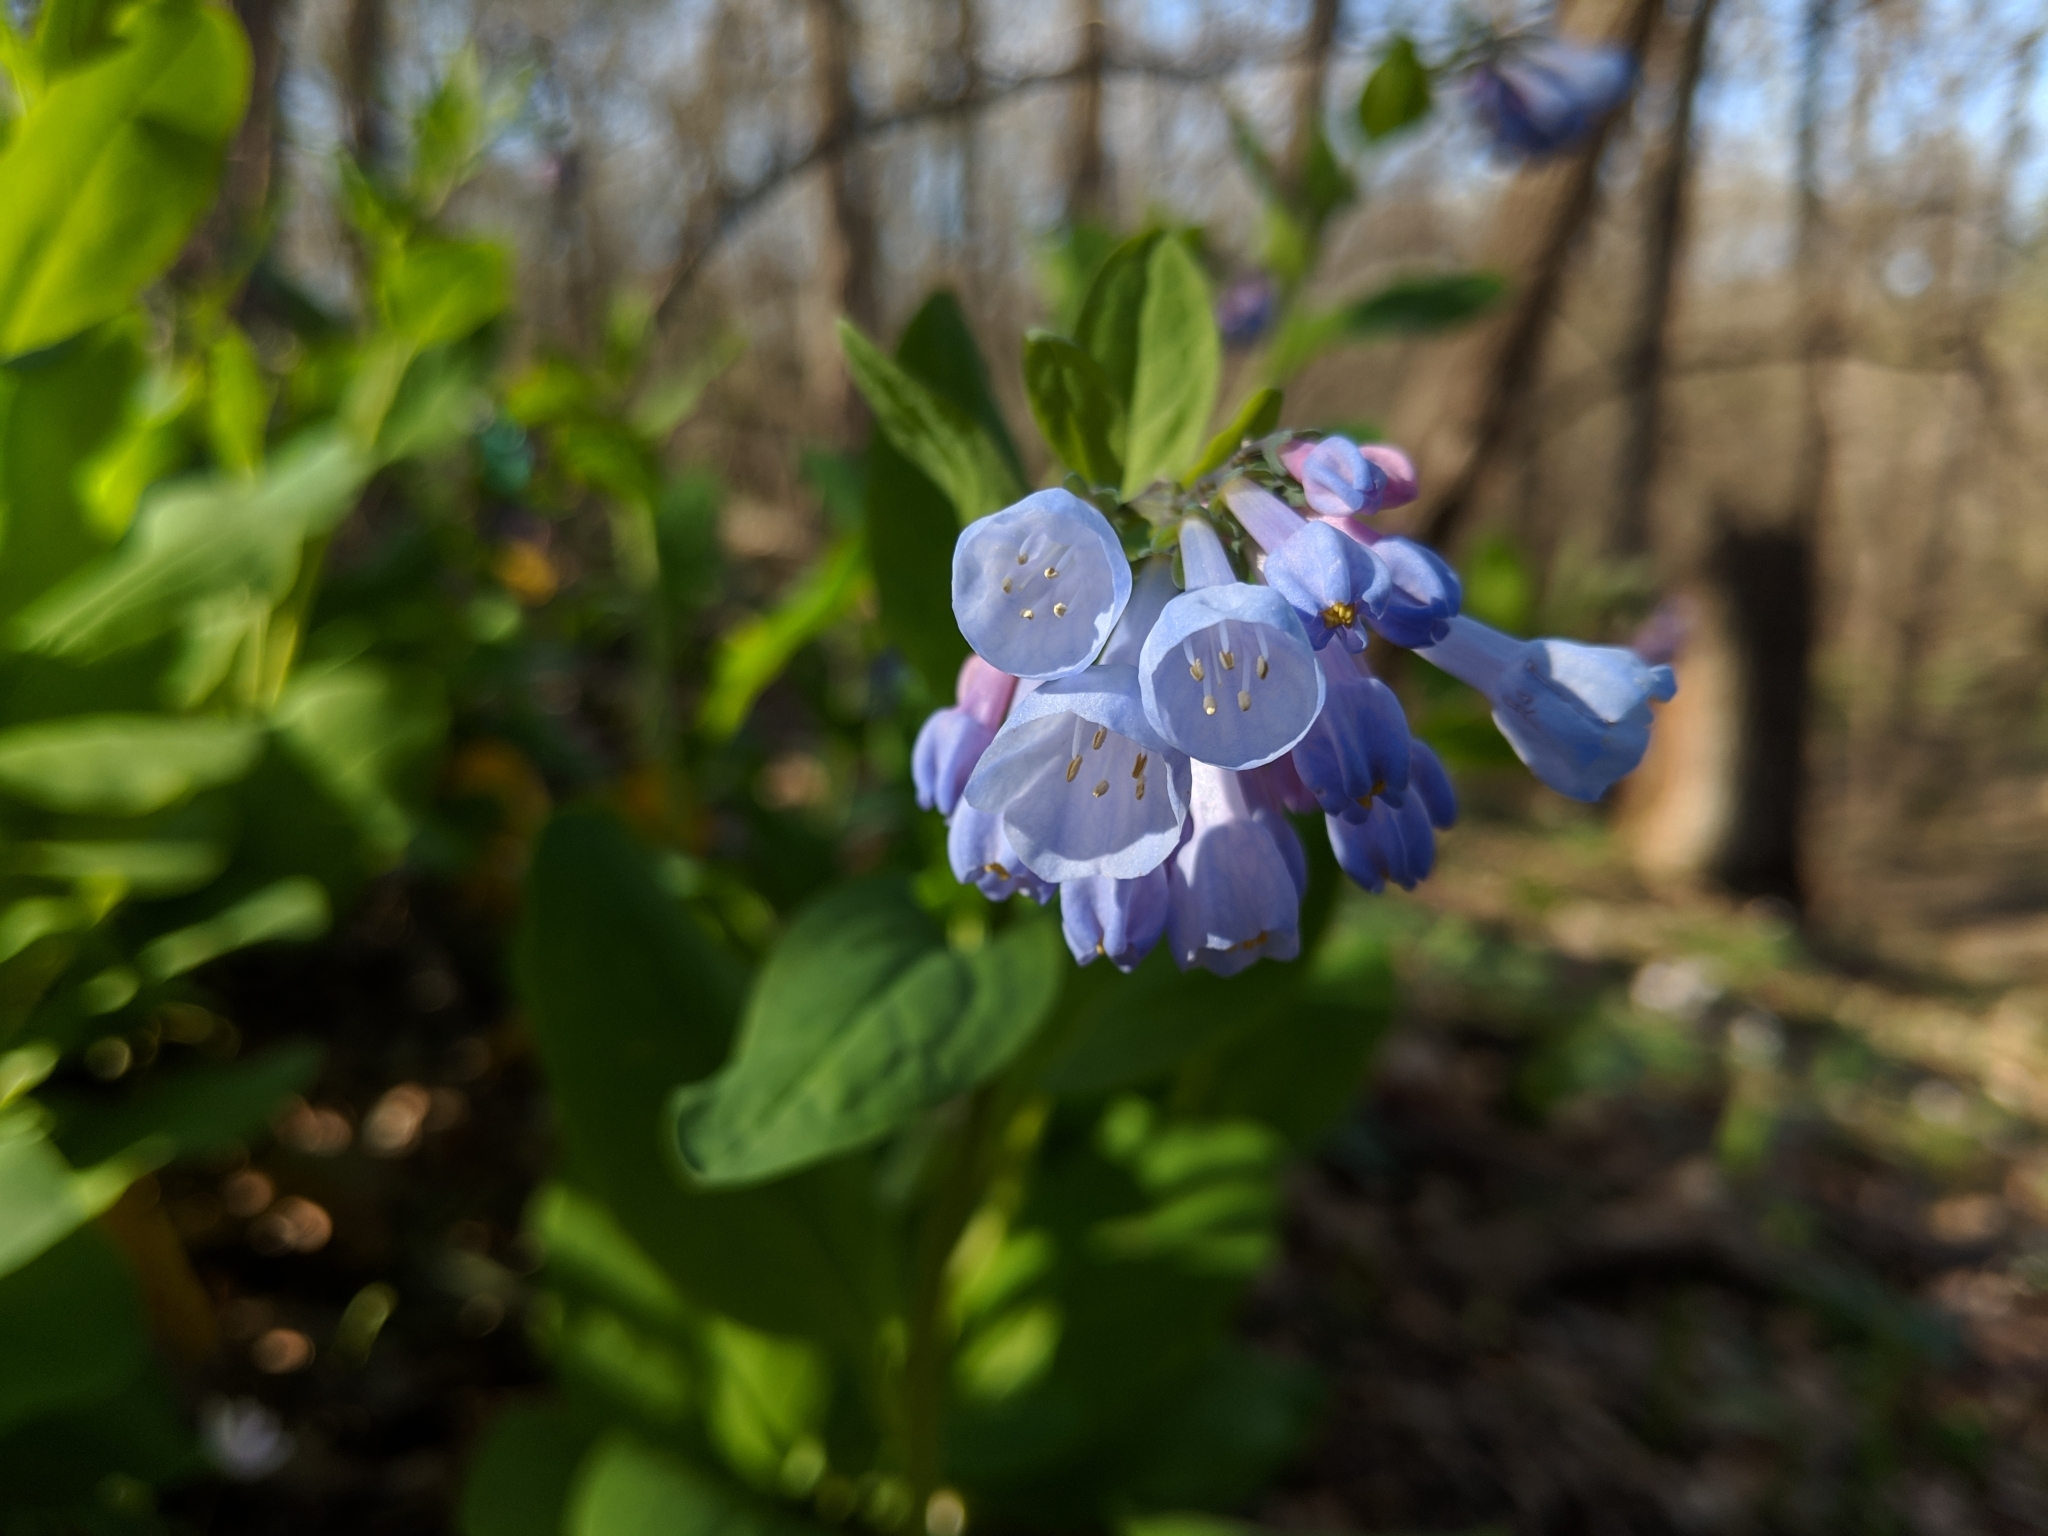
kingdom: Plantae
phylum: Tracheophyta
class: Magnoliopsida
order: Boraginales
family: Boraginaceae
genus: Mertensia
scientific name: Mertensia virginica
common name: Virginia bluebells
